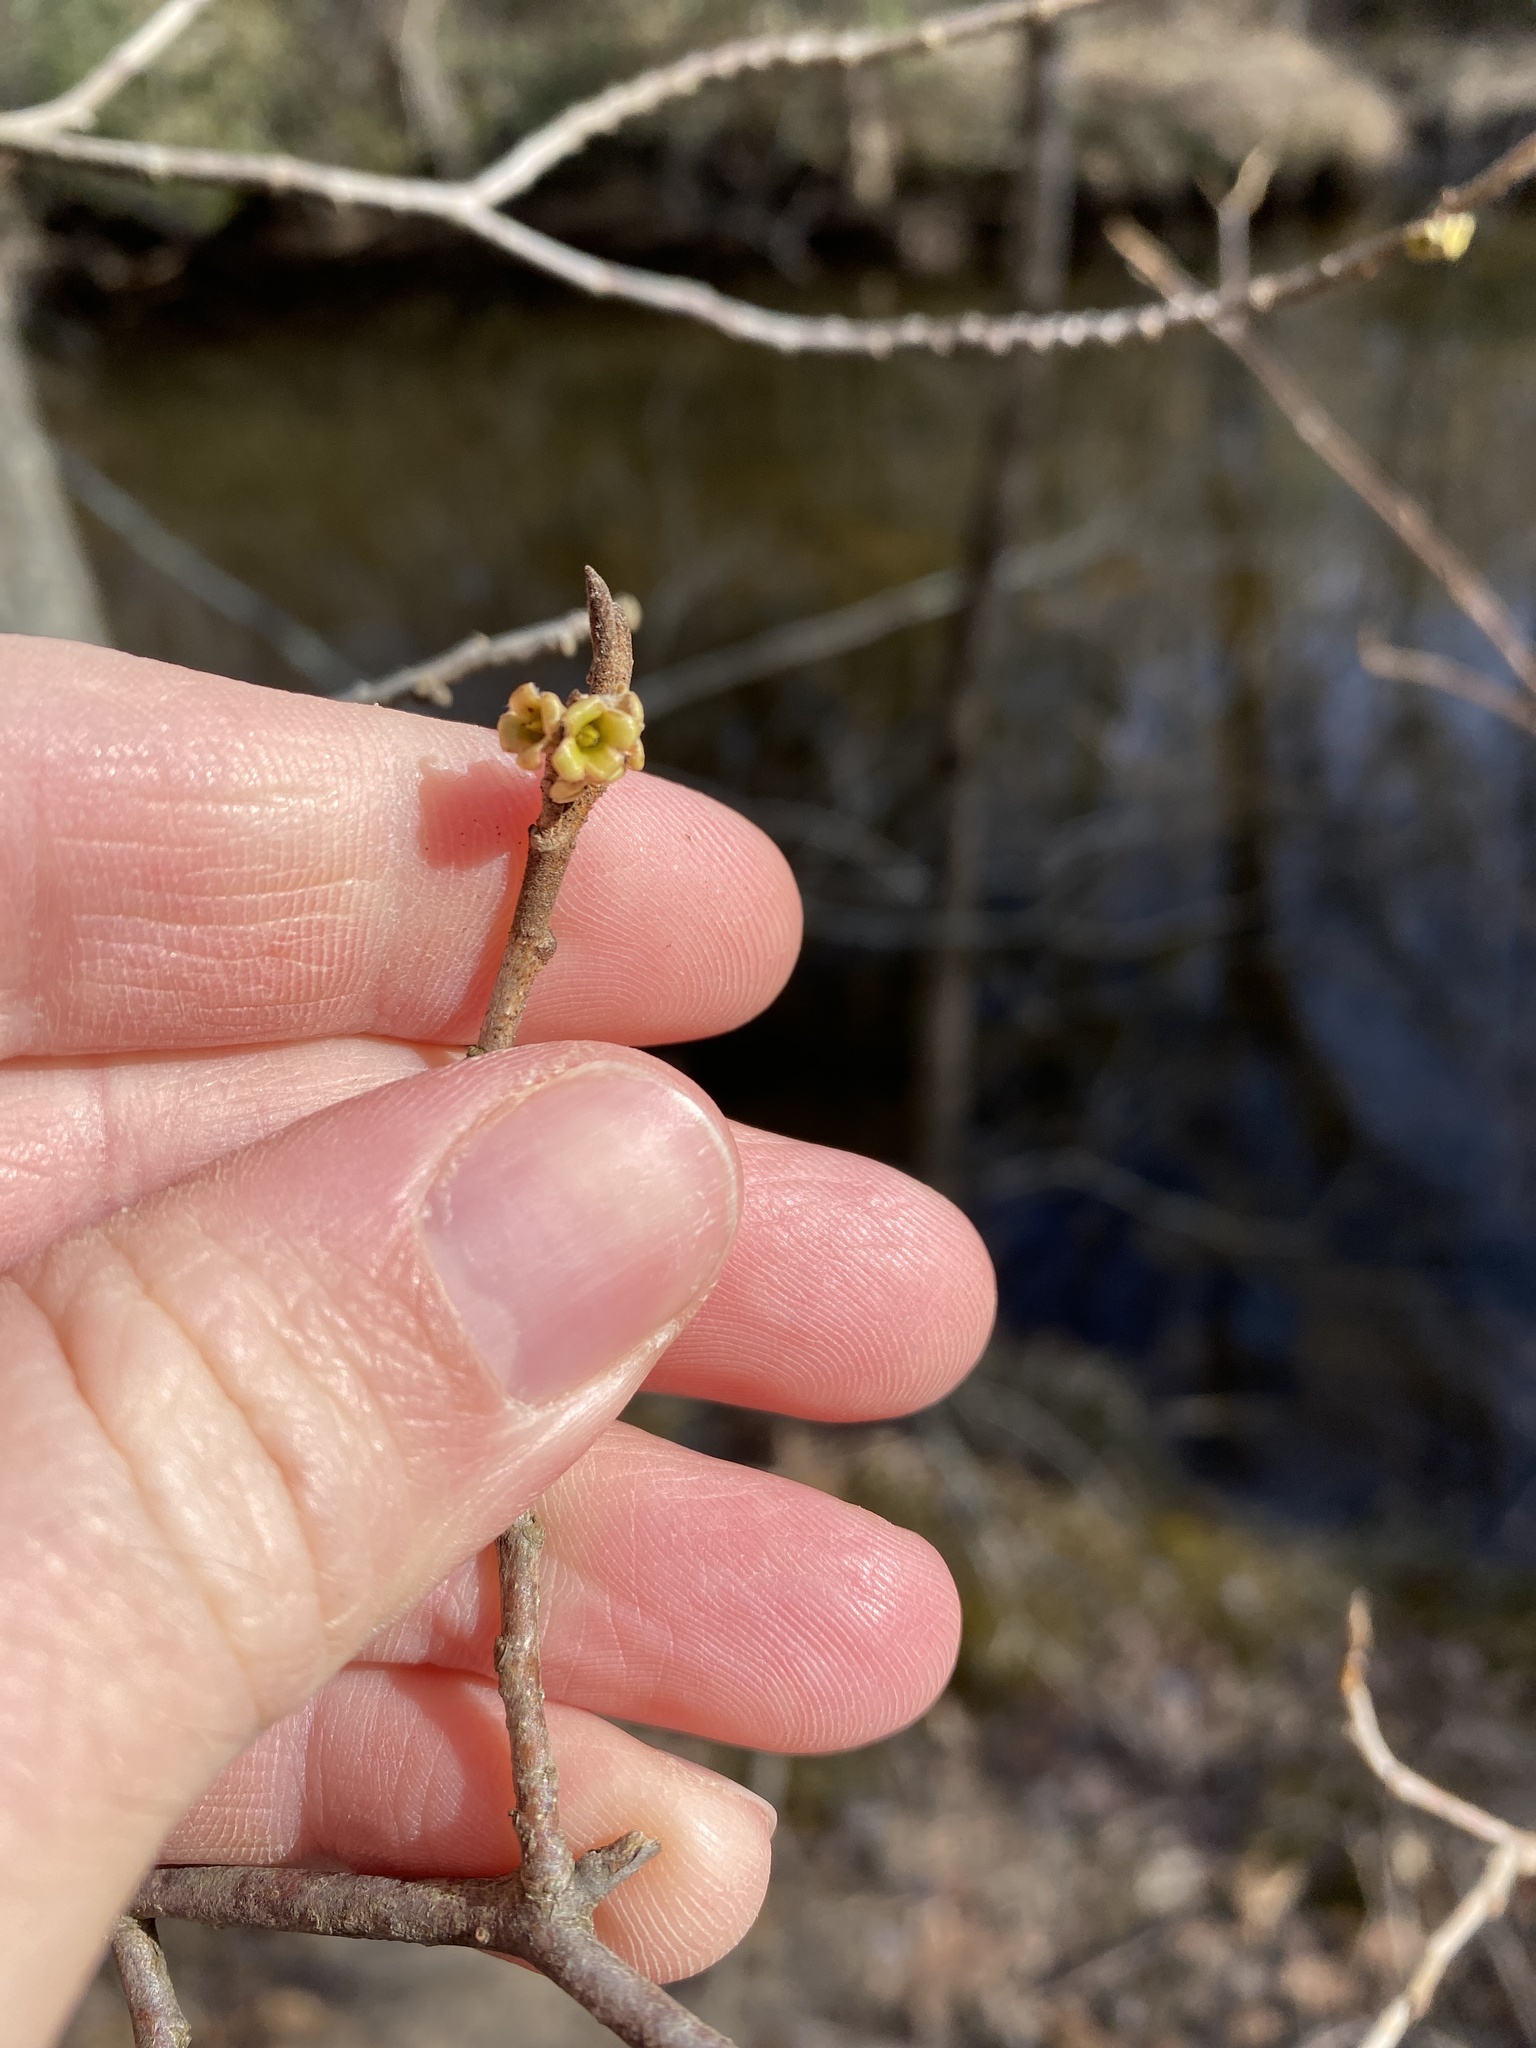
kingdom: Plantae
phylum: Tracheophyta
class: Magnoliopsida
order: Saxifragales
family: Hamamelidaceae
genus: Hamamelis
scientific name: Hamamelis virginiana
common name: Witch-hazel
